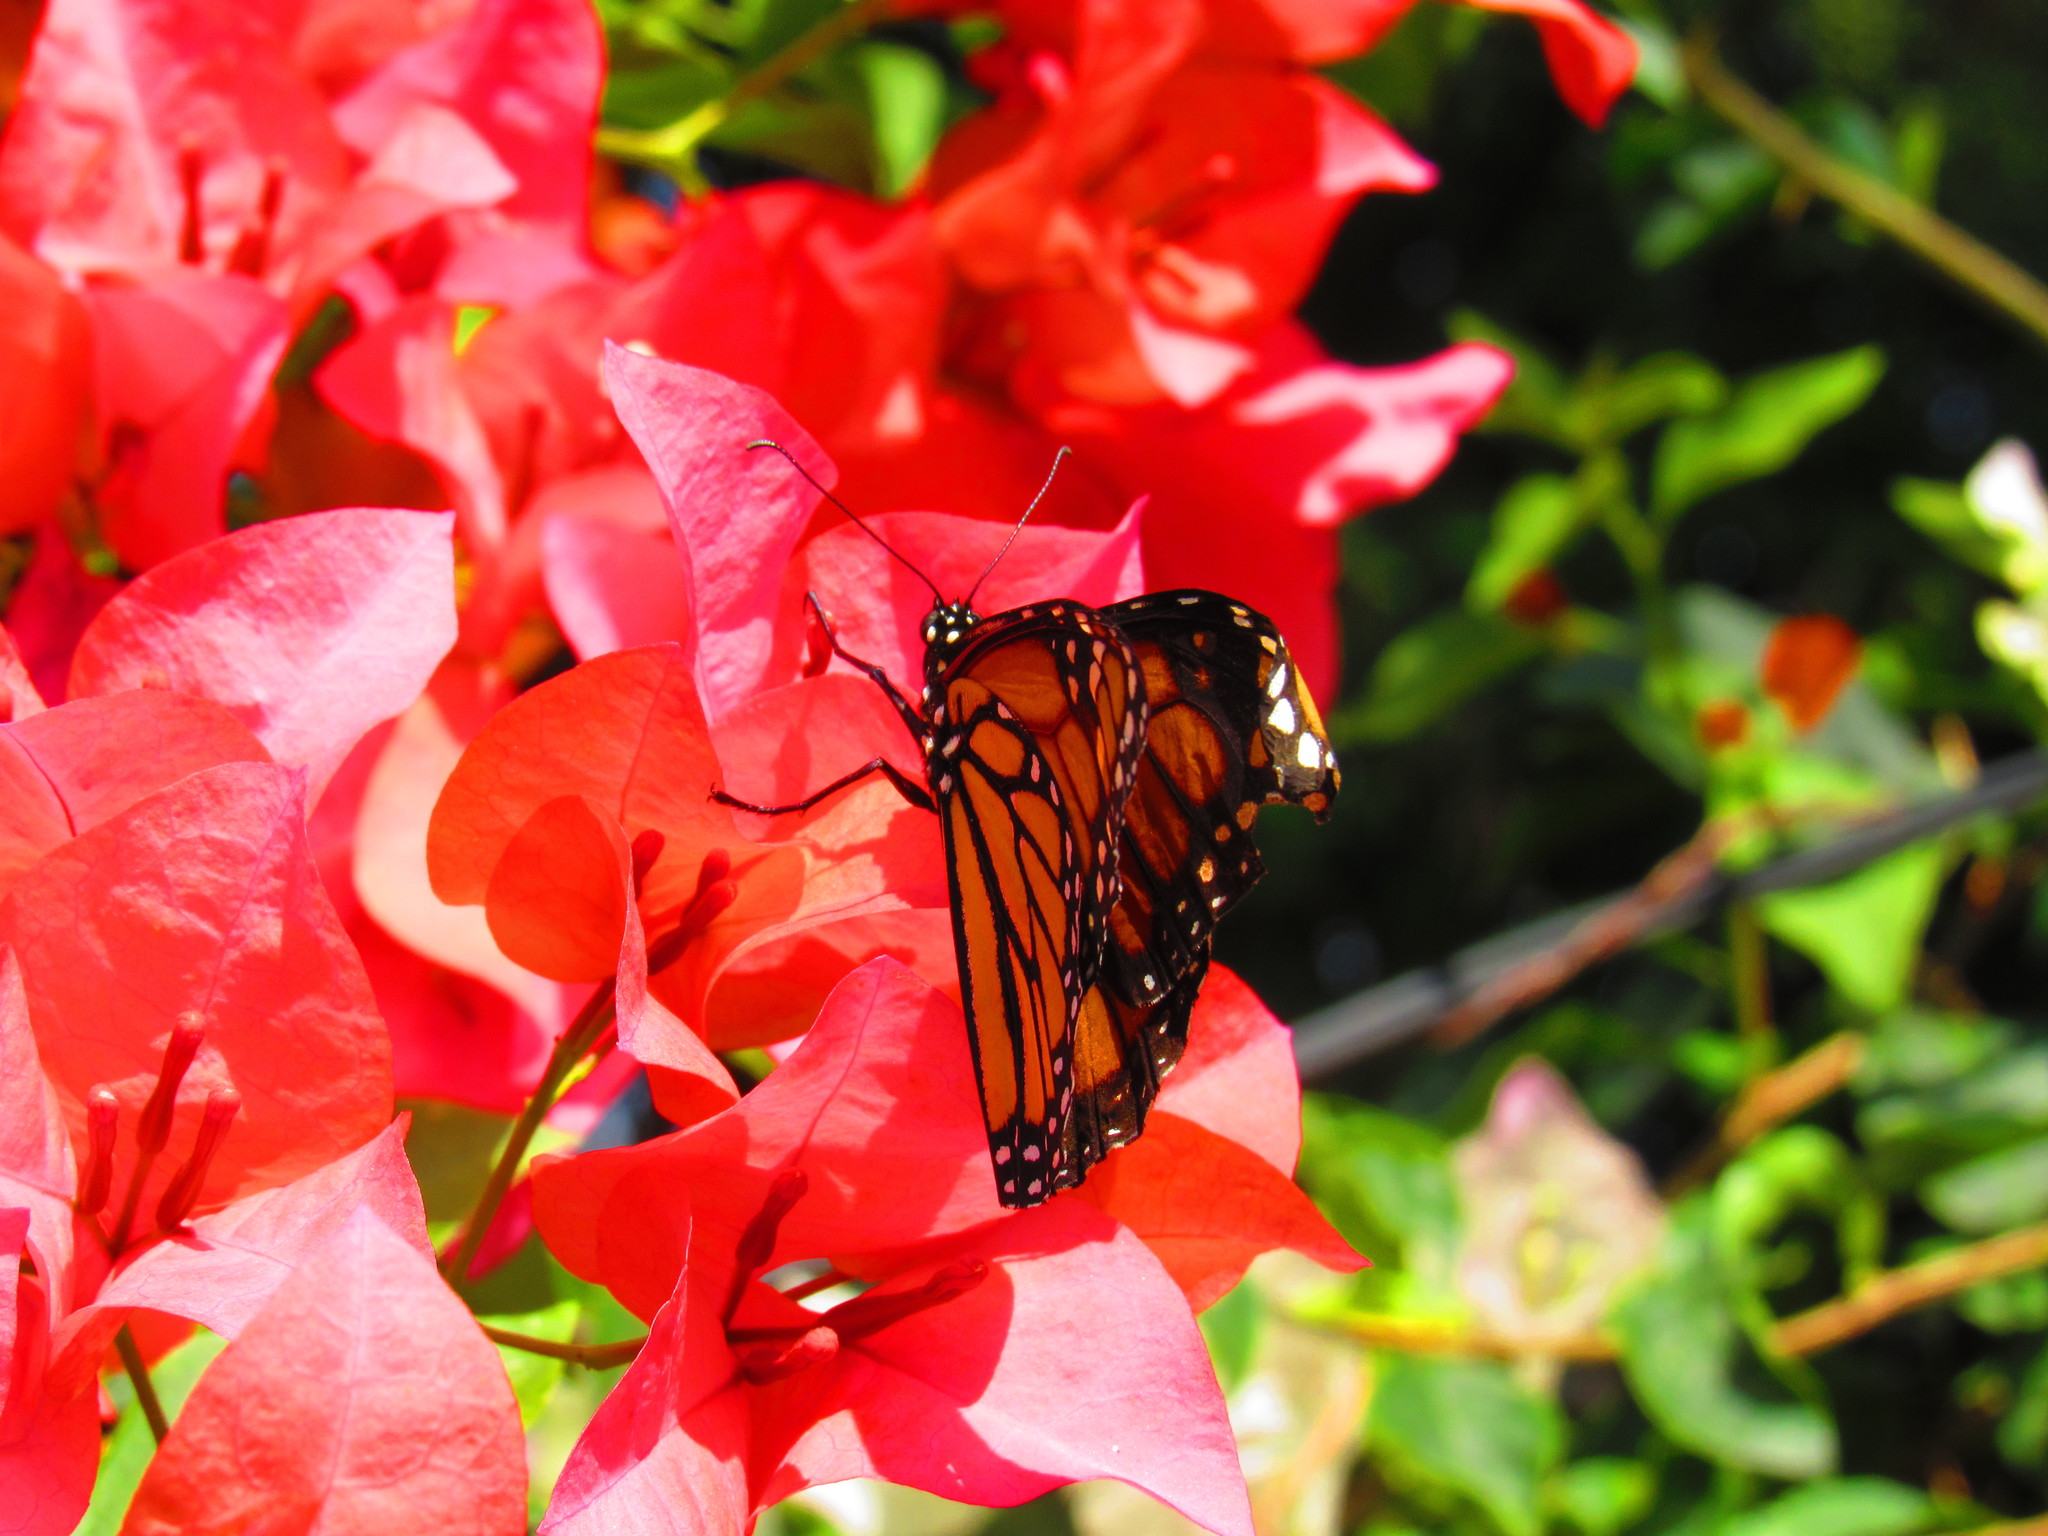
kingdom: Animalia
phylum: Arthropoda
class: Insecta
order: Lepidoptera
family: Nymphalidae
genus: Danaus
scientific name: Danaus plexippus
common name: Monarch
